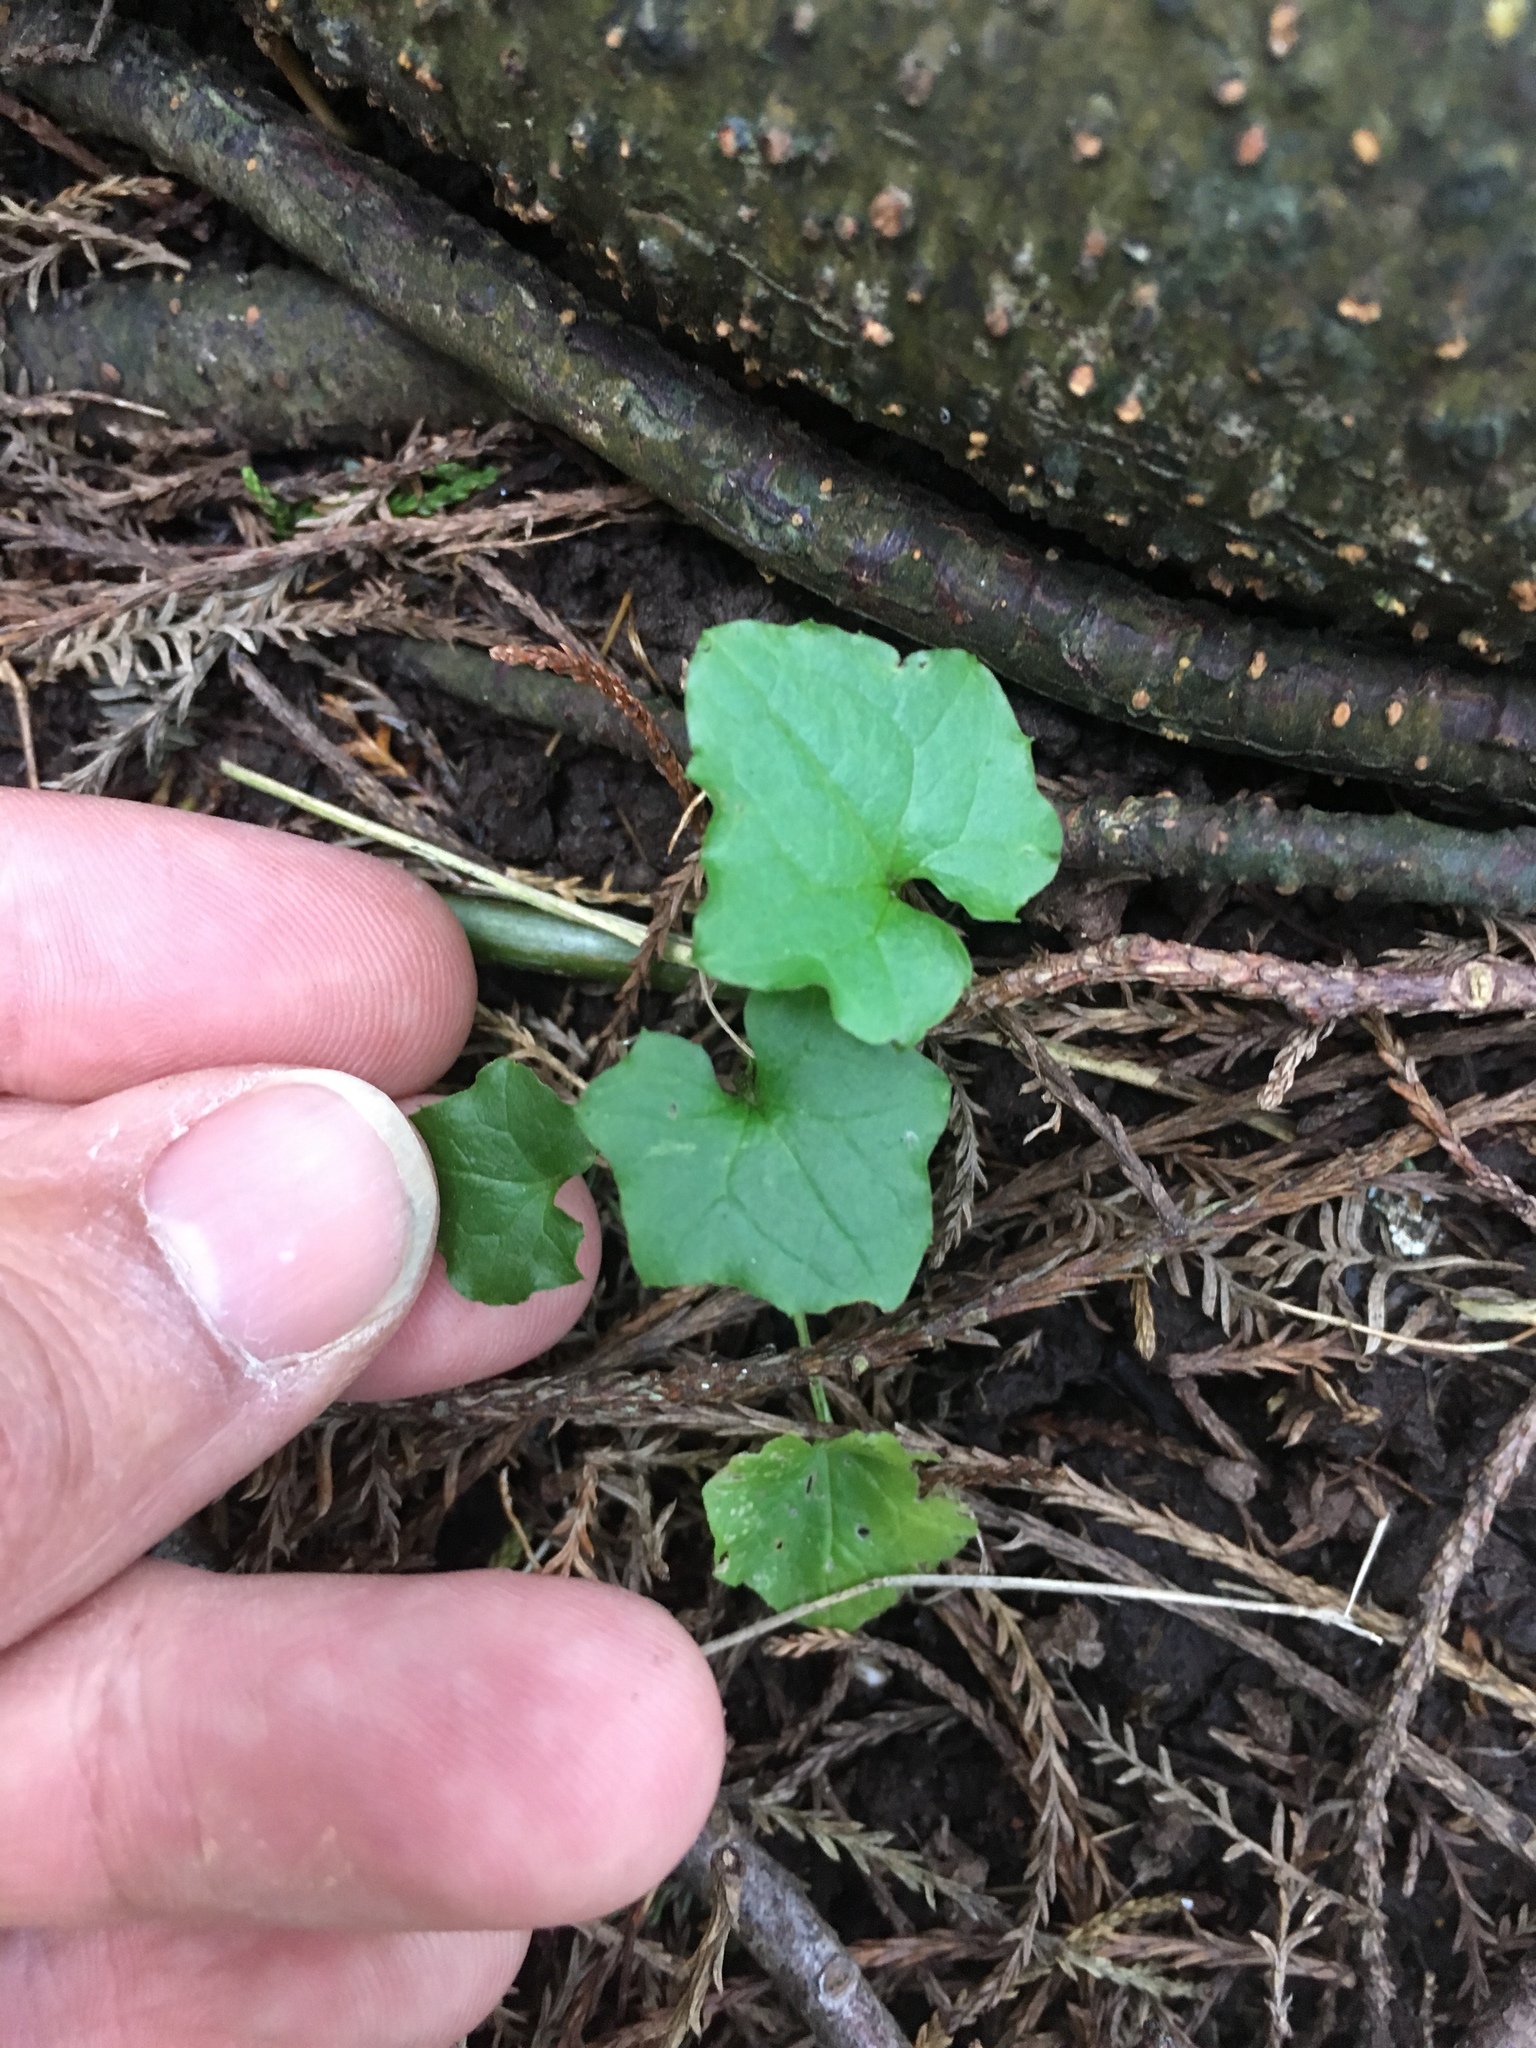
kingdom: Plantae
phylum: Tracheophyta
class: Magnoliopsida
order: Asterales
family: Asteraceae
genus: Mycelis
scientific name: Mycelis muralis
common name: Wall lettuce
